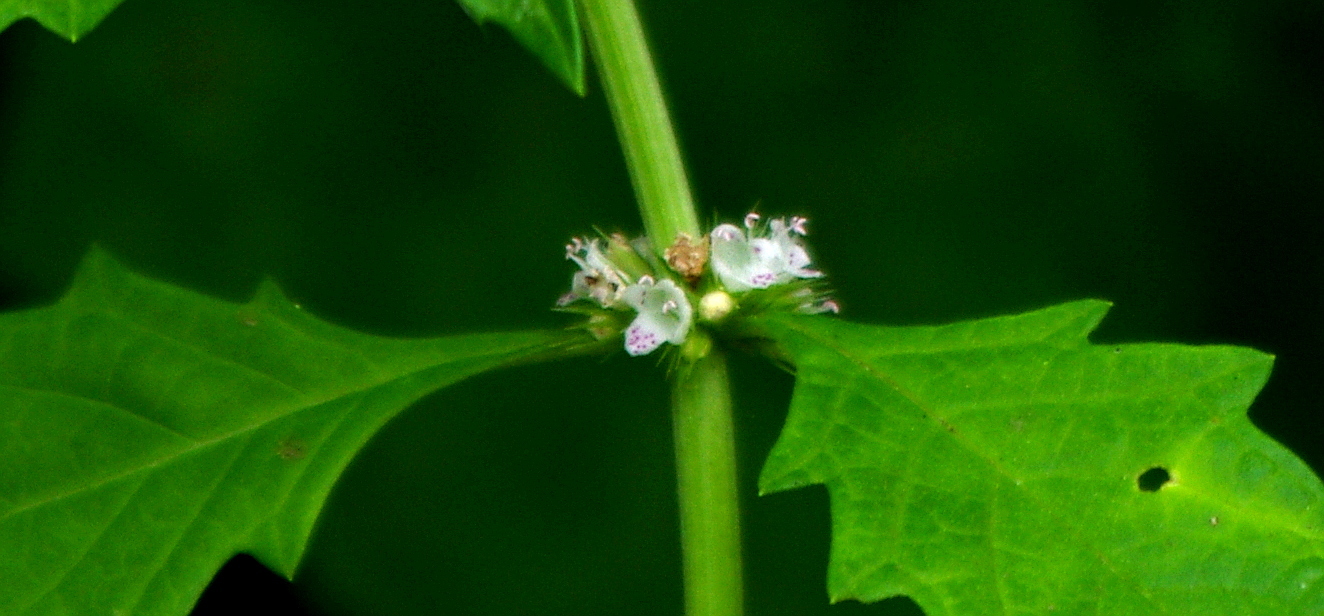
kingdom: Plantae
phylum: Tracheophyta
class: Magnoliopsida
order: Lamiales
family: Lamiaceae
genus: Lycopus
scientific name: Lycopus europaeus
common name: European bugleweed
